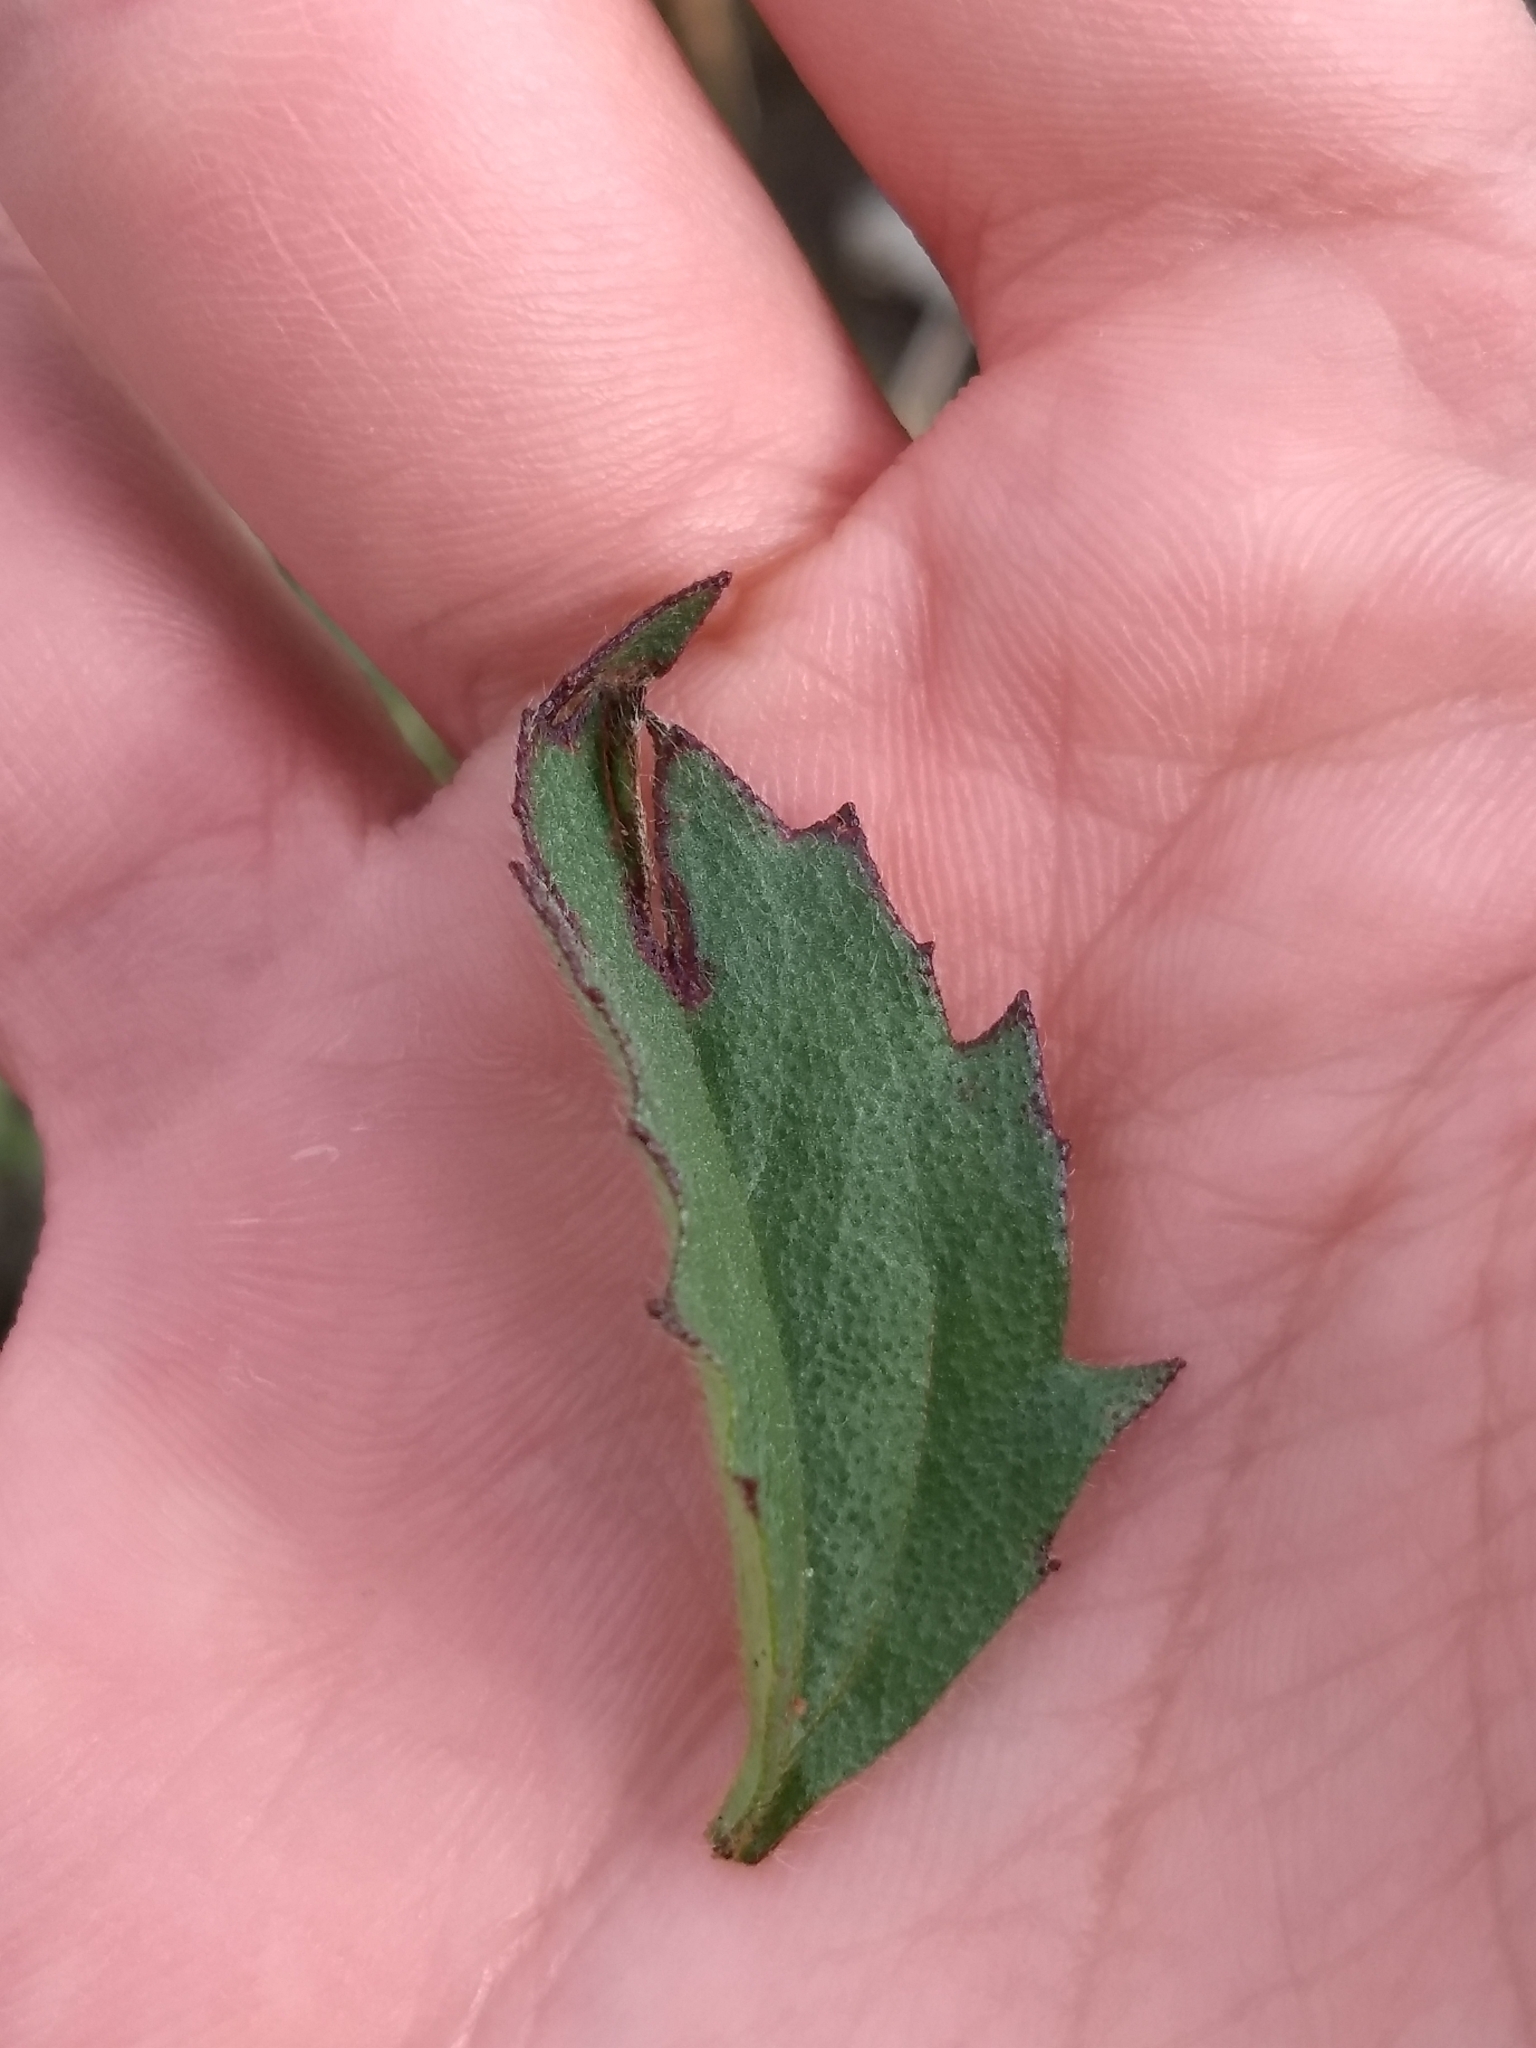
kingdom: Plantae
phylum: Tracheophyta
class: Magnoliopsida
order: Asterales
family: Asteraceae
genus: Tridax
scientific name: Tridax procumbens
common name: Coatbuttons
